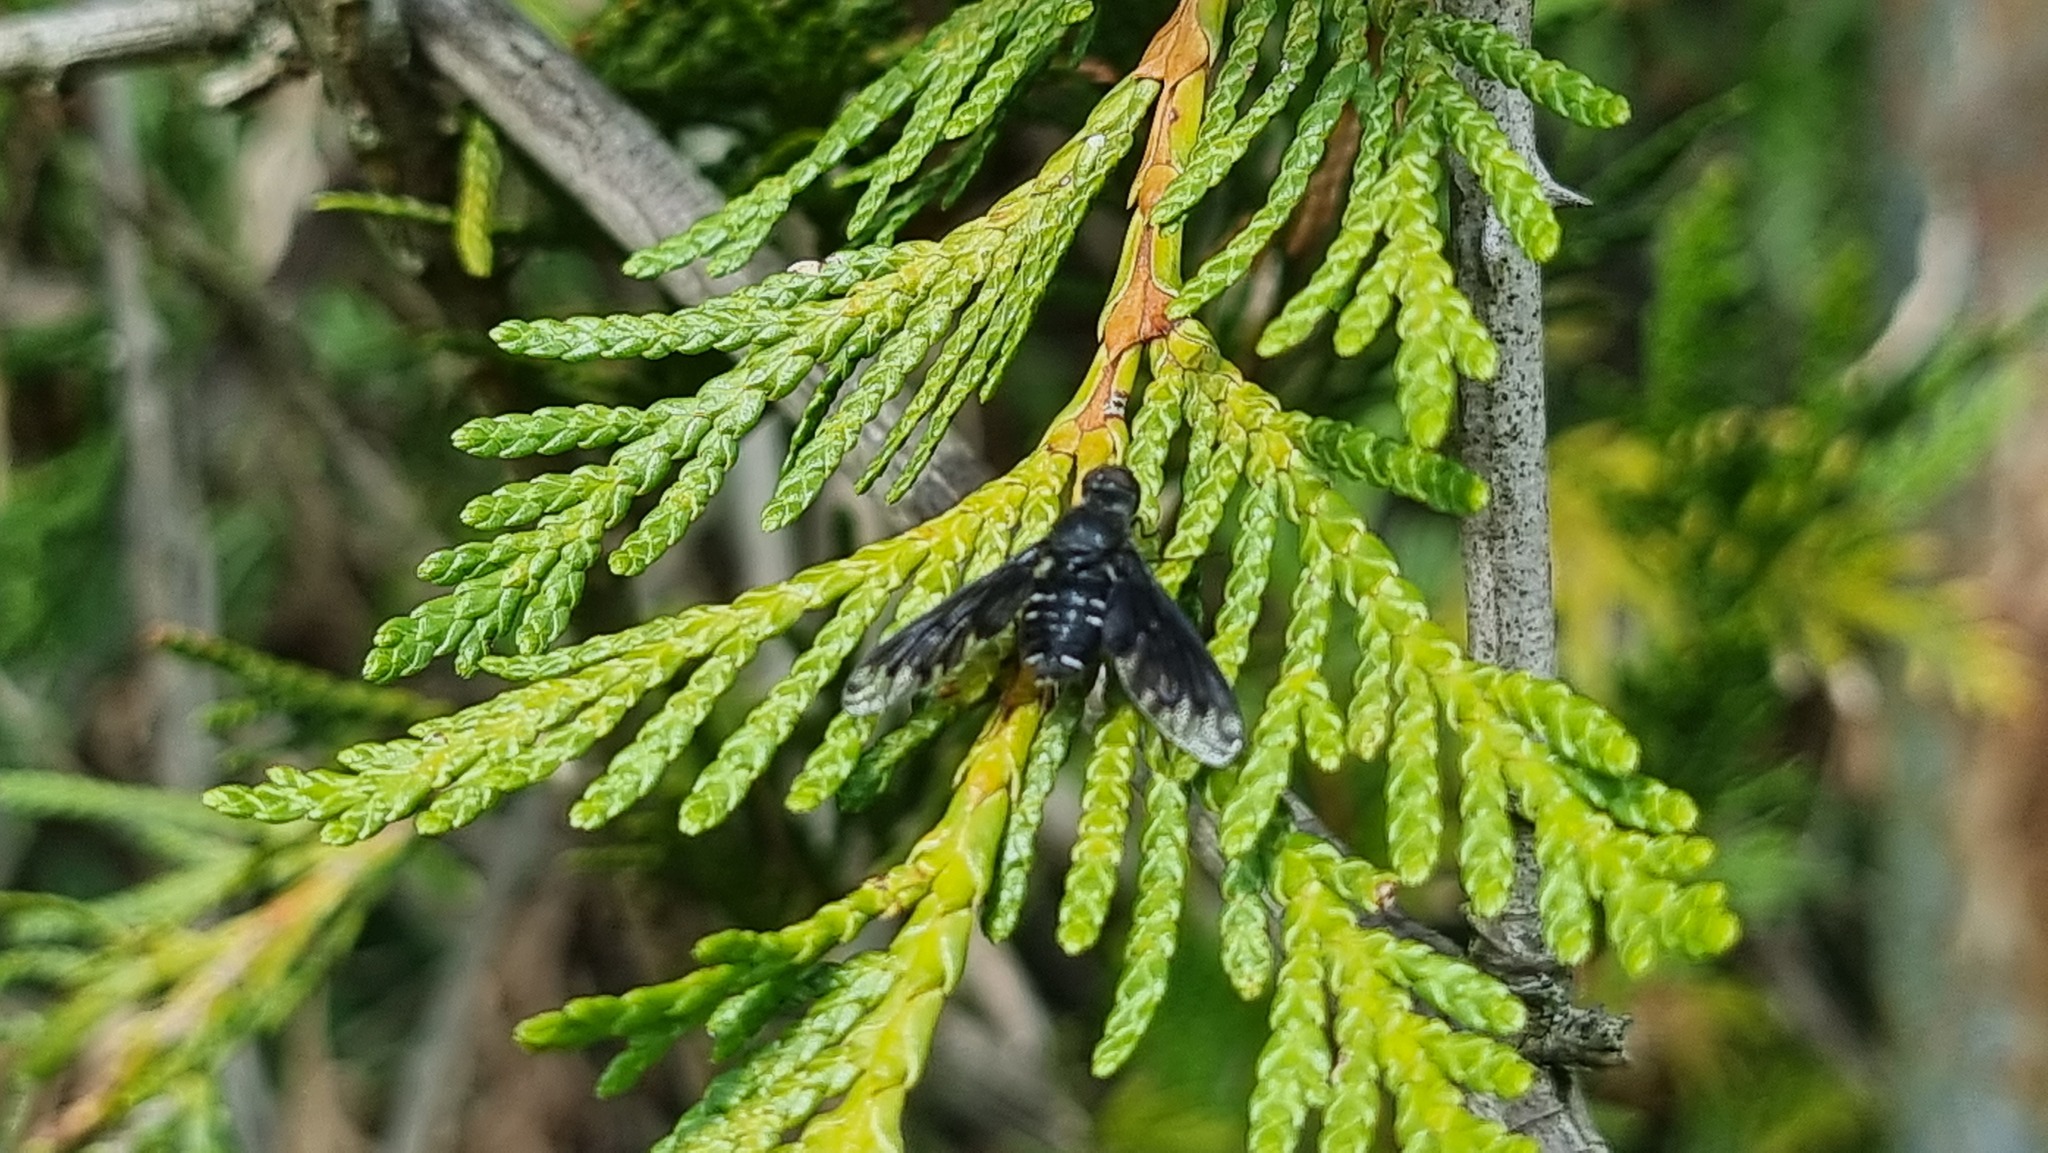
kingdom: Animalia
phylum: Arthropoda
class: Insecta
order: Diptera
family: Bombyliidae
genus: Anthrax
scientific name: Anthrax anthrax
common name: Anthracite bee-fly
